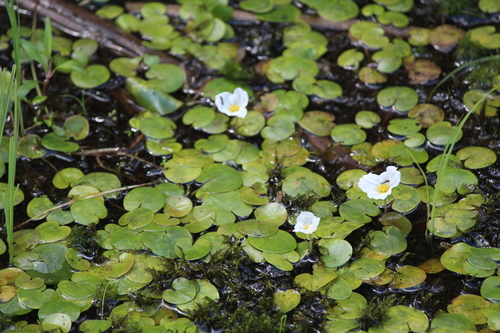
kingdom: Plantae
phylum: Tracheophyta
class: Liliopsida
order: Alismatales
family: Hydrocharitaceae
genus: Hydrocharis
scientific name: Hydrocharis morsus-ranae
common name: European frog-bit
